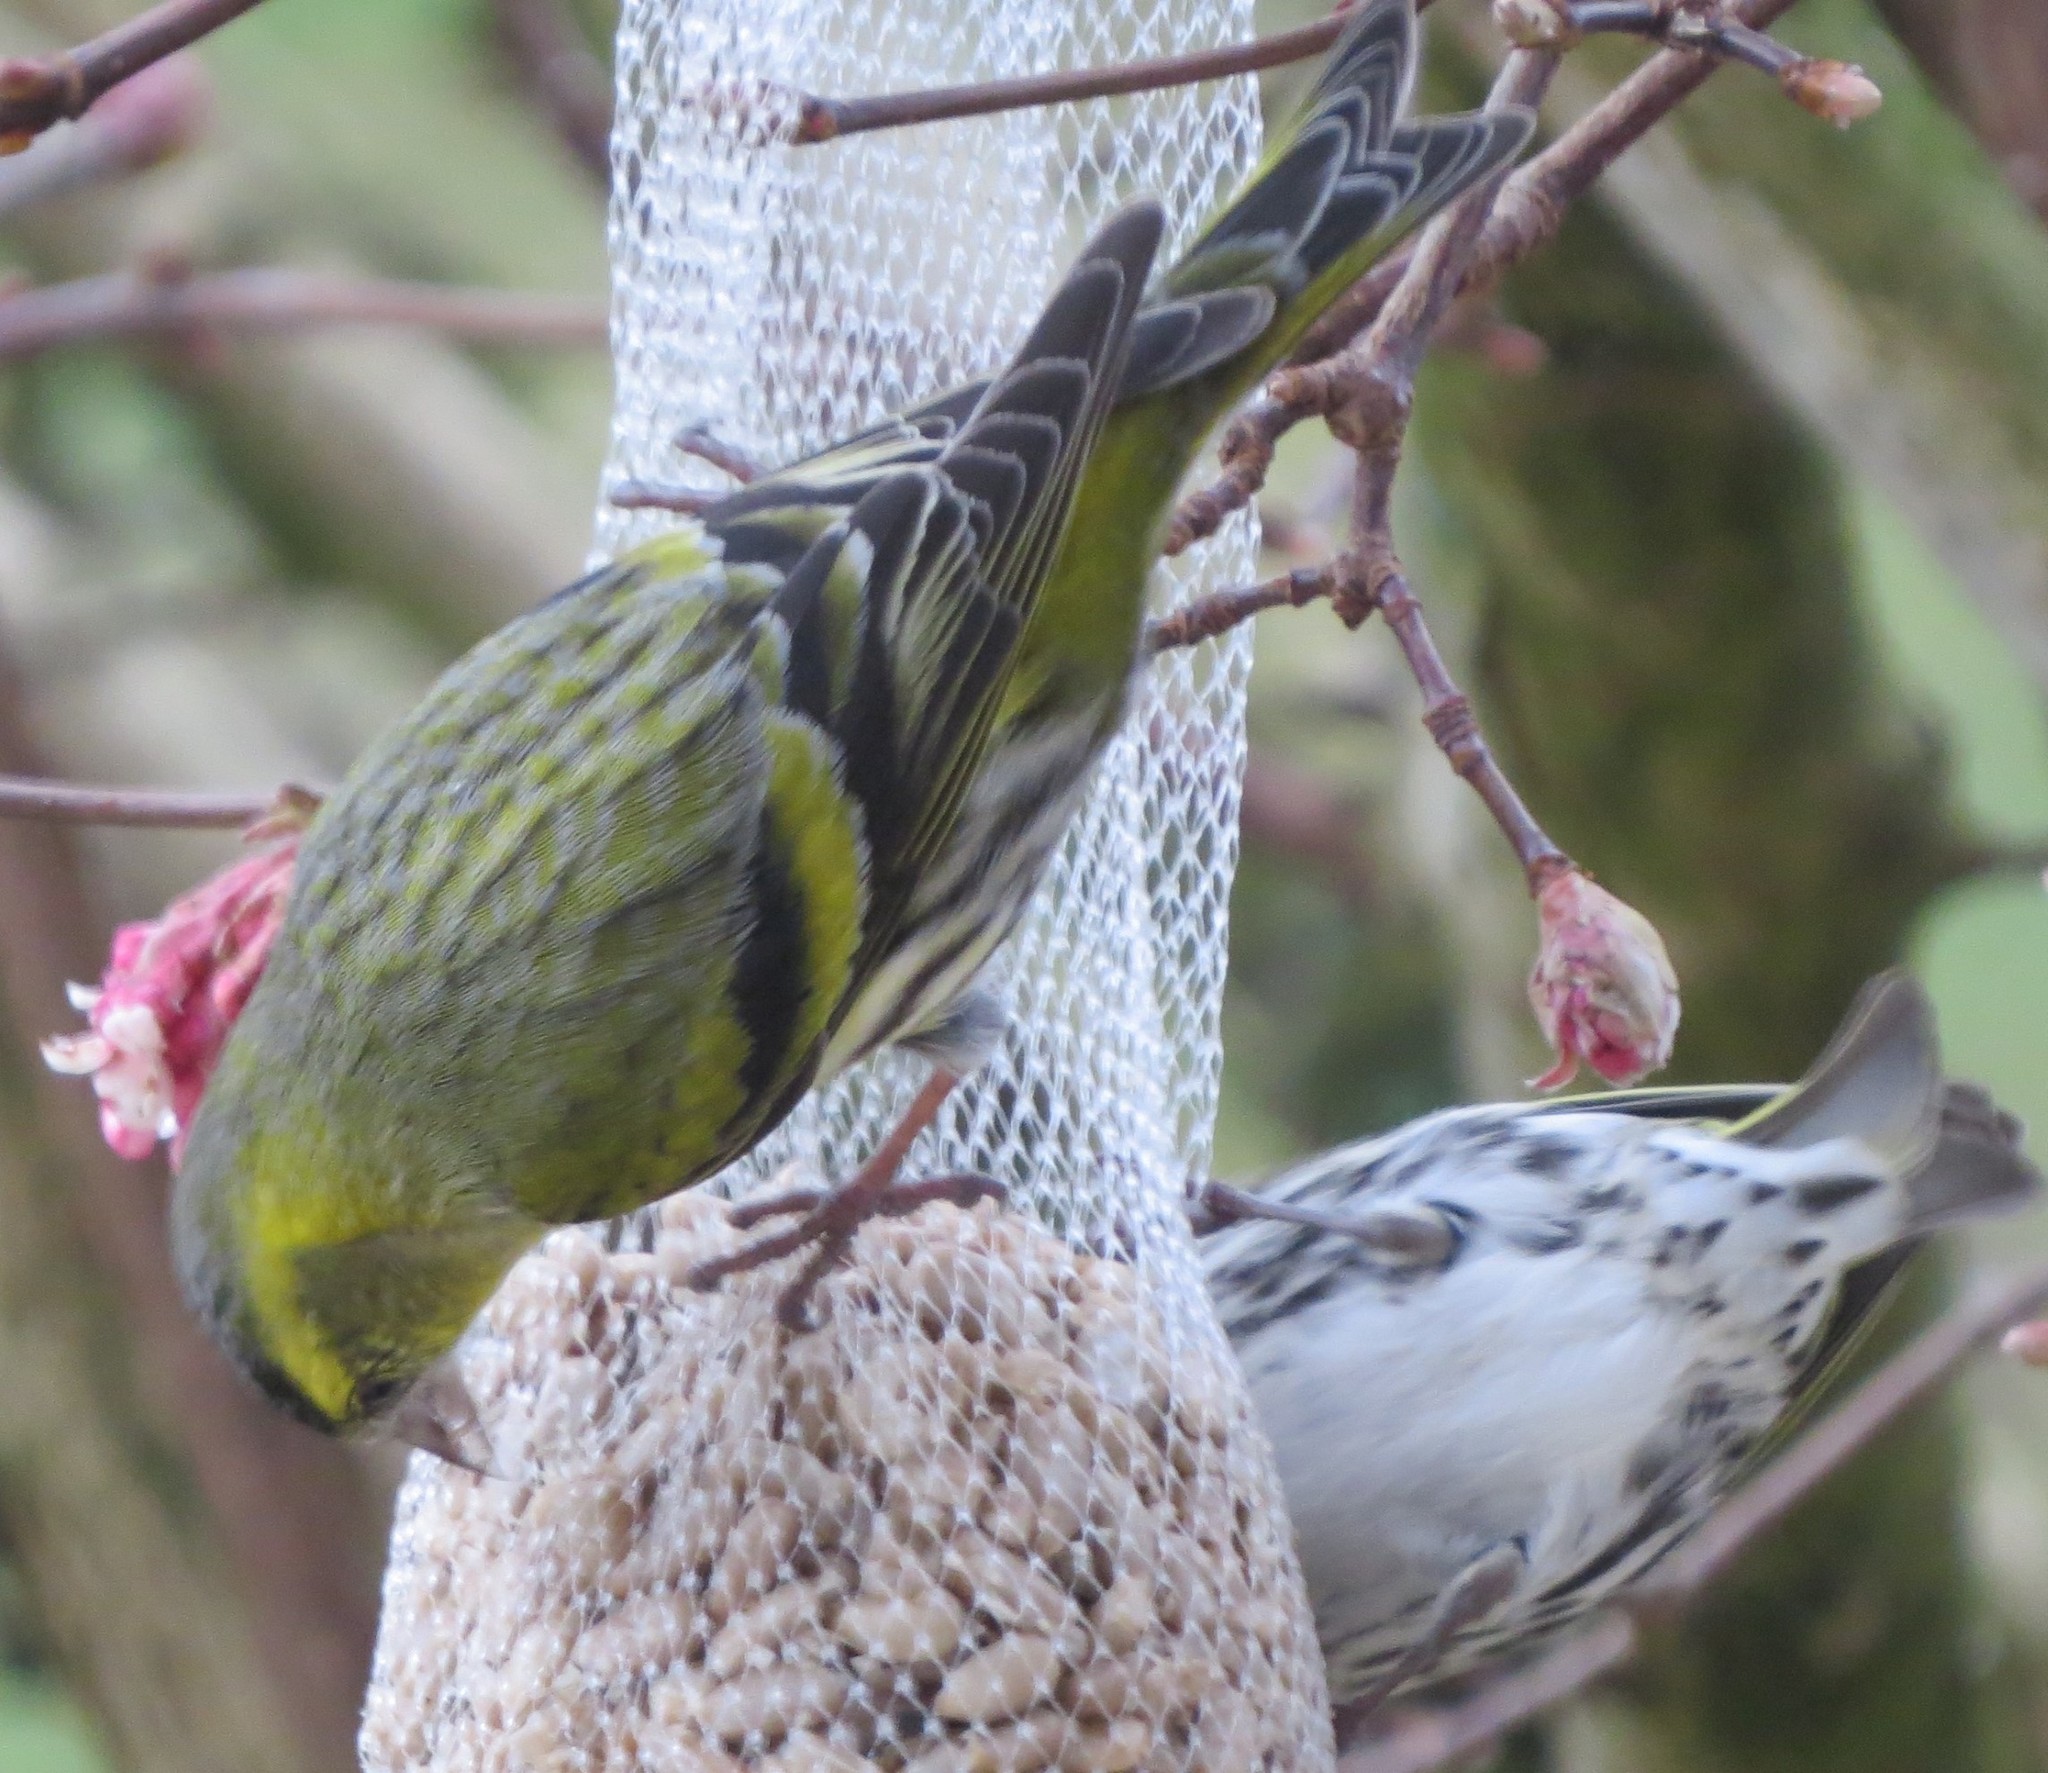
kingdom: Animalia
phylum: Chordata
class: Aves
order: Passeriformes
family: Fringillidae
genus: Spinus
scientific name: Spinus spinus
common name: Eurasian siskin
